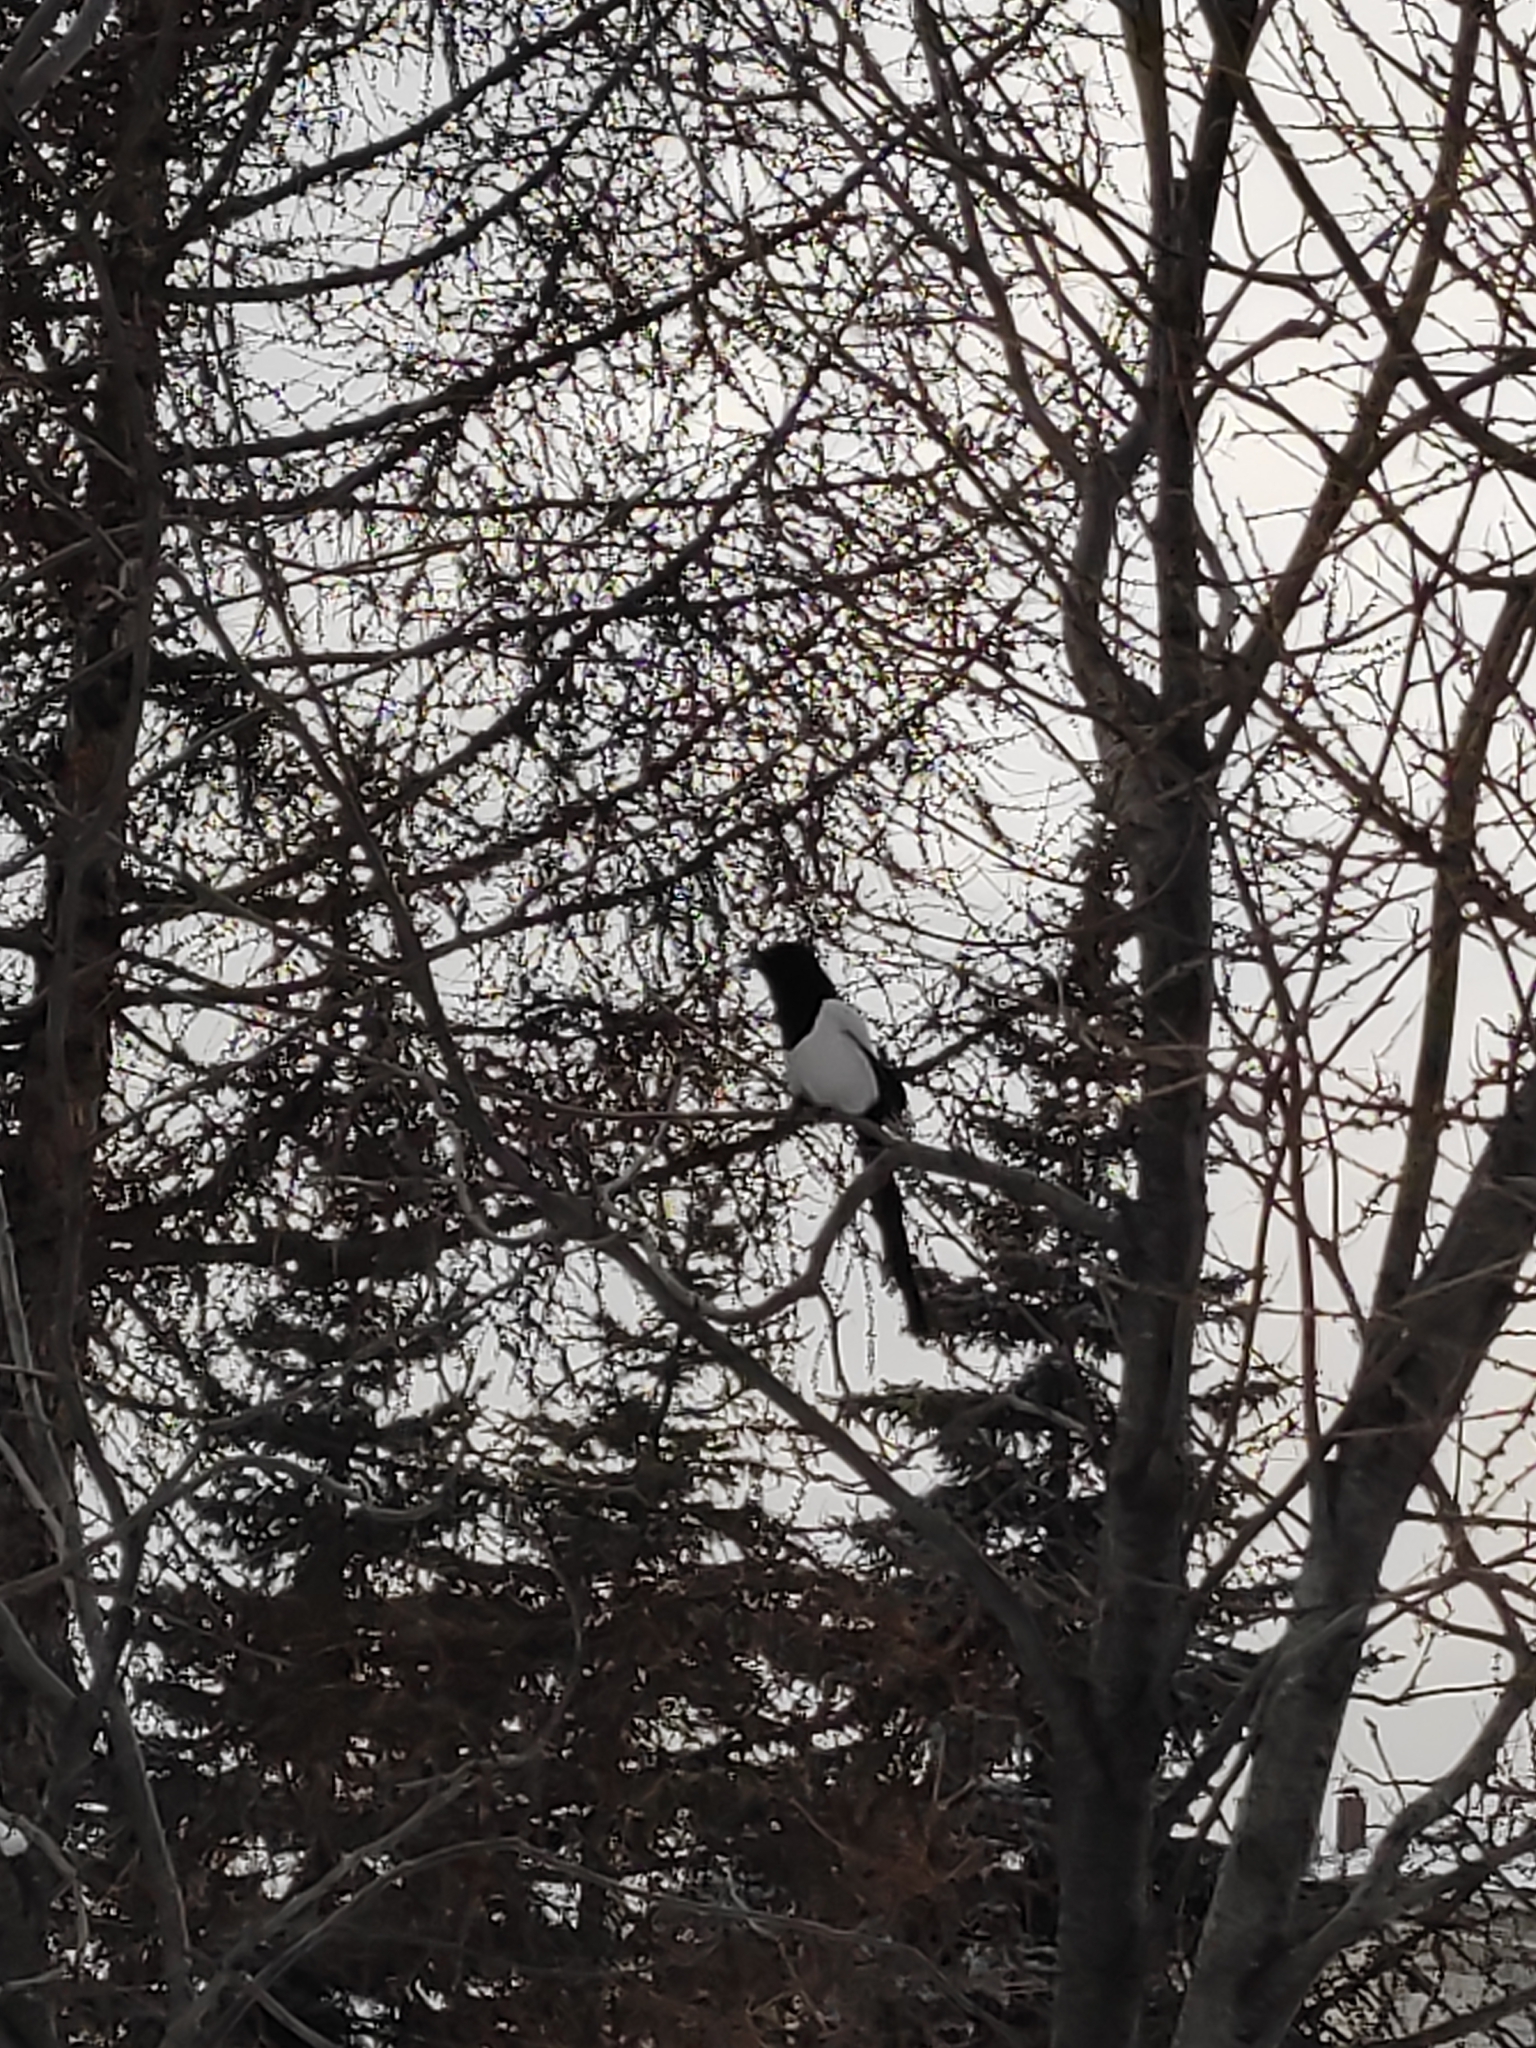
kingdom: Animalia
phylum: Chordata
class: Aves
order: Passeriformes
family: Corvidae
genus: Pica
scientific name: Pica pica
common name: Eurasian magpie
